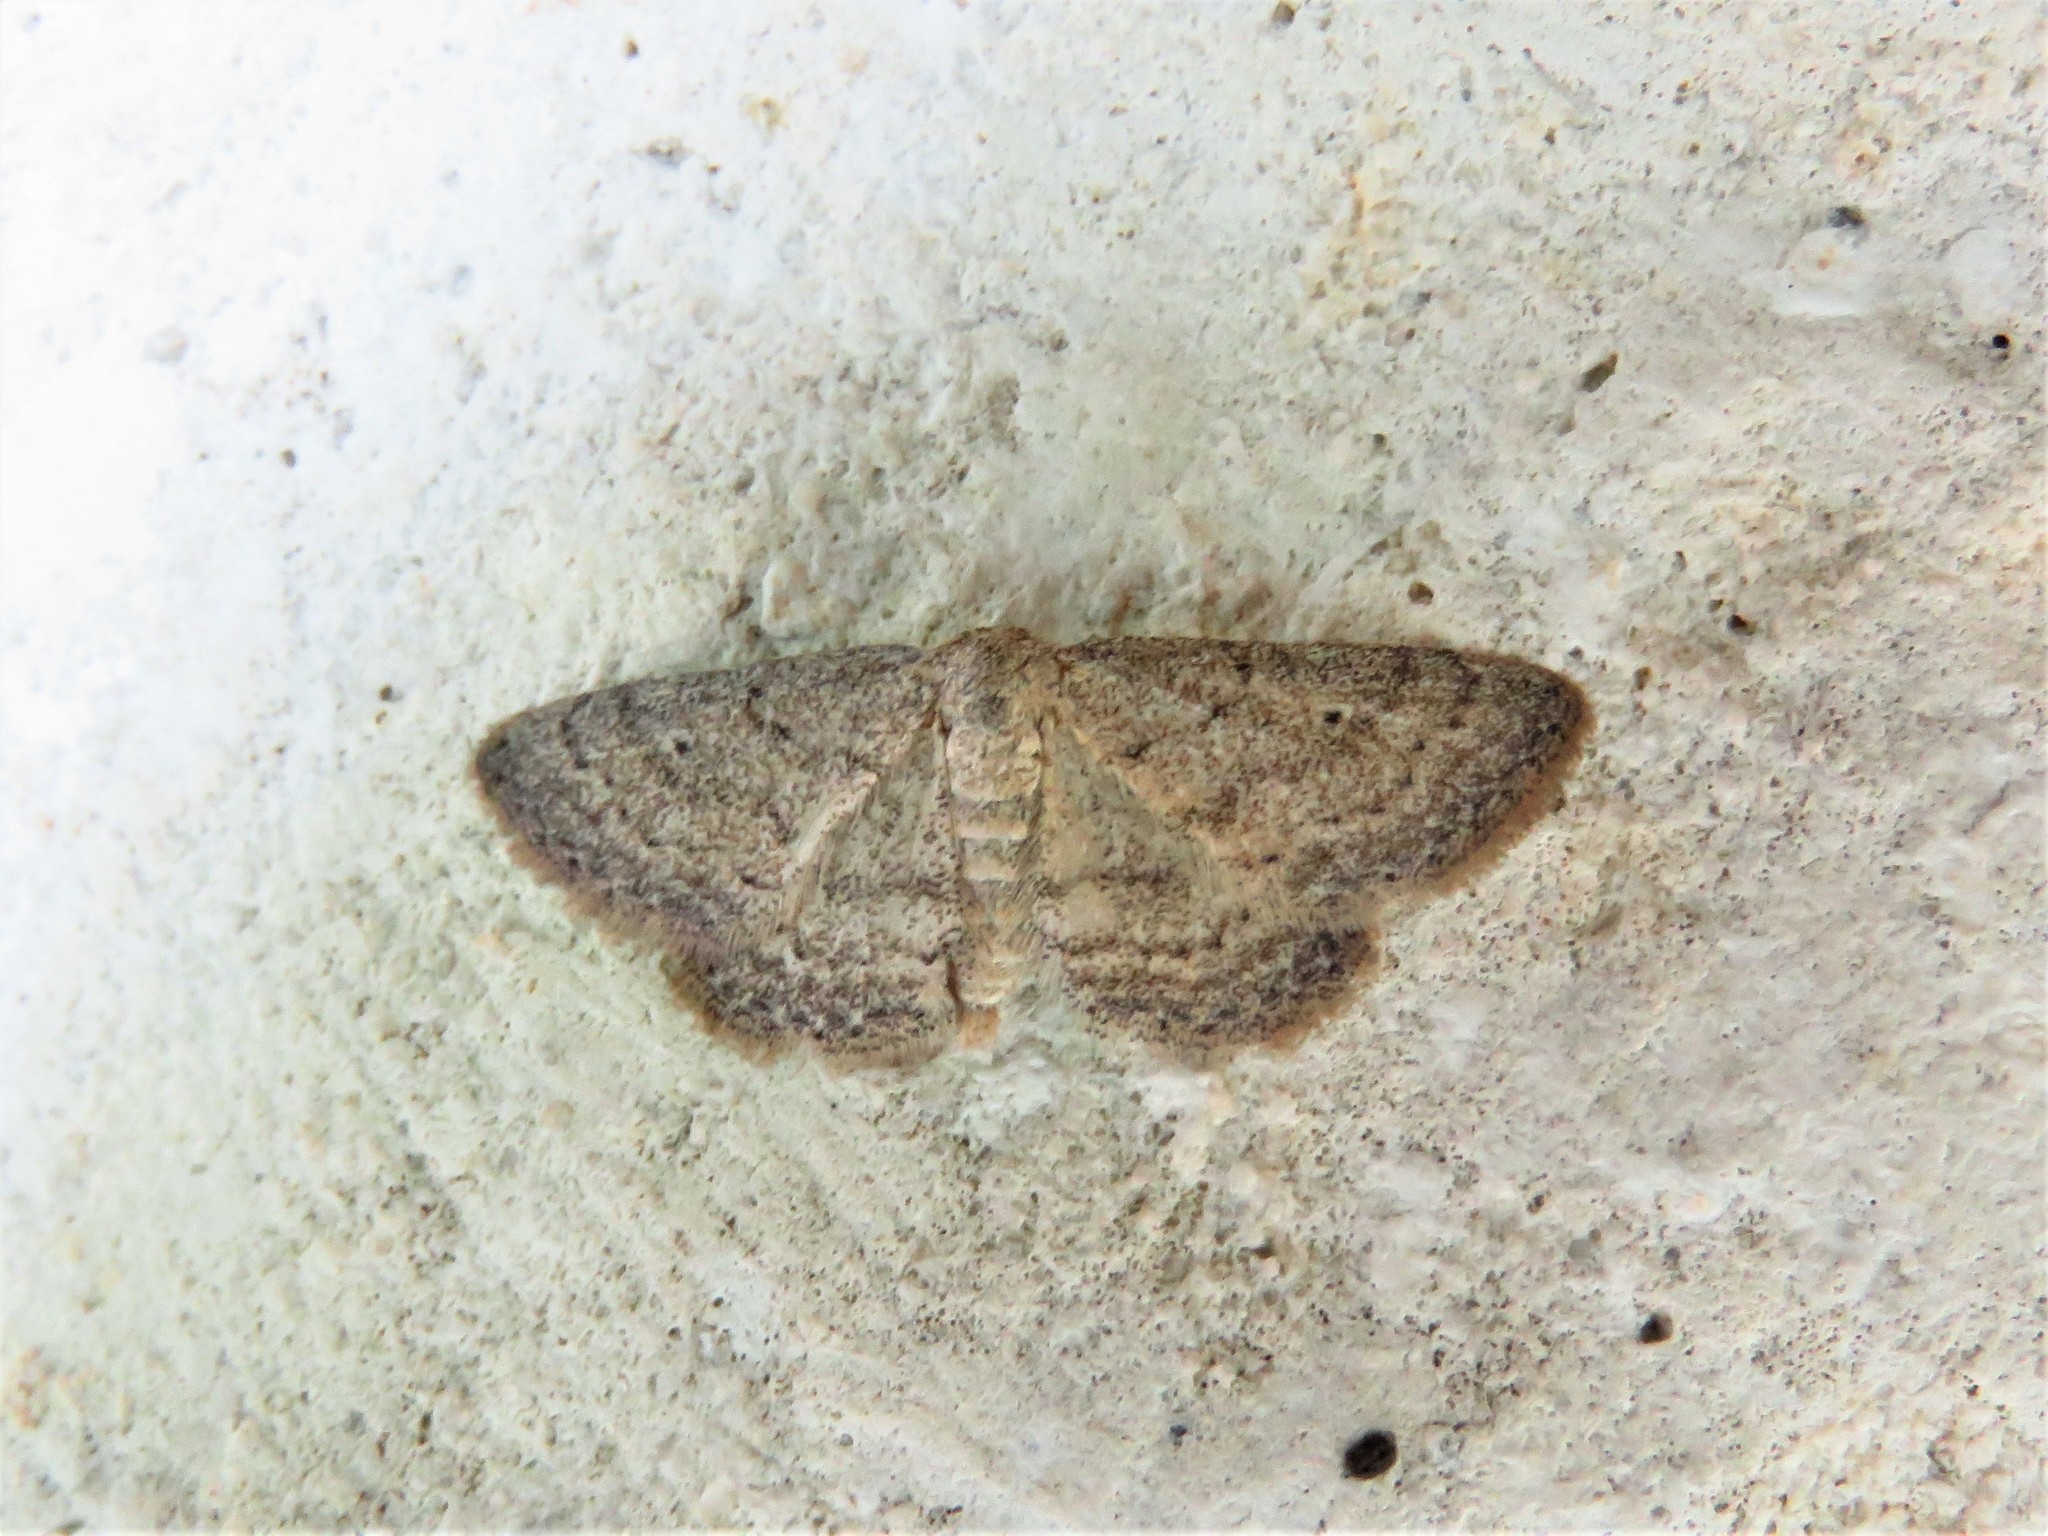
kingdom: Animalia
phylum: Arthropoda
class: Insecta
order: Lepidoptera
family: Geometridae
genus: Lobocleta
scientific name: Lobocleta ossularia
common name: Drab brown wave
